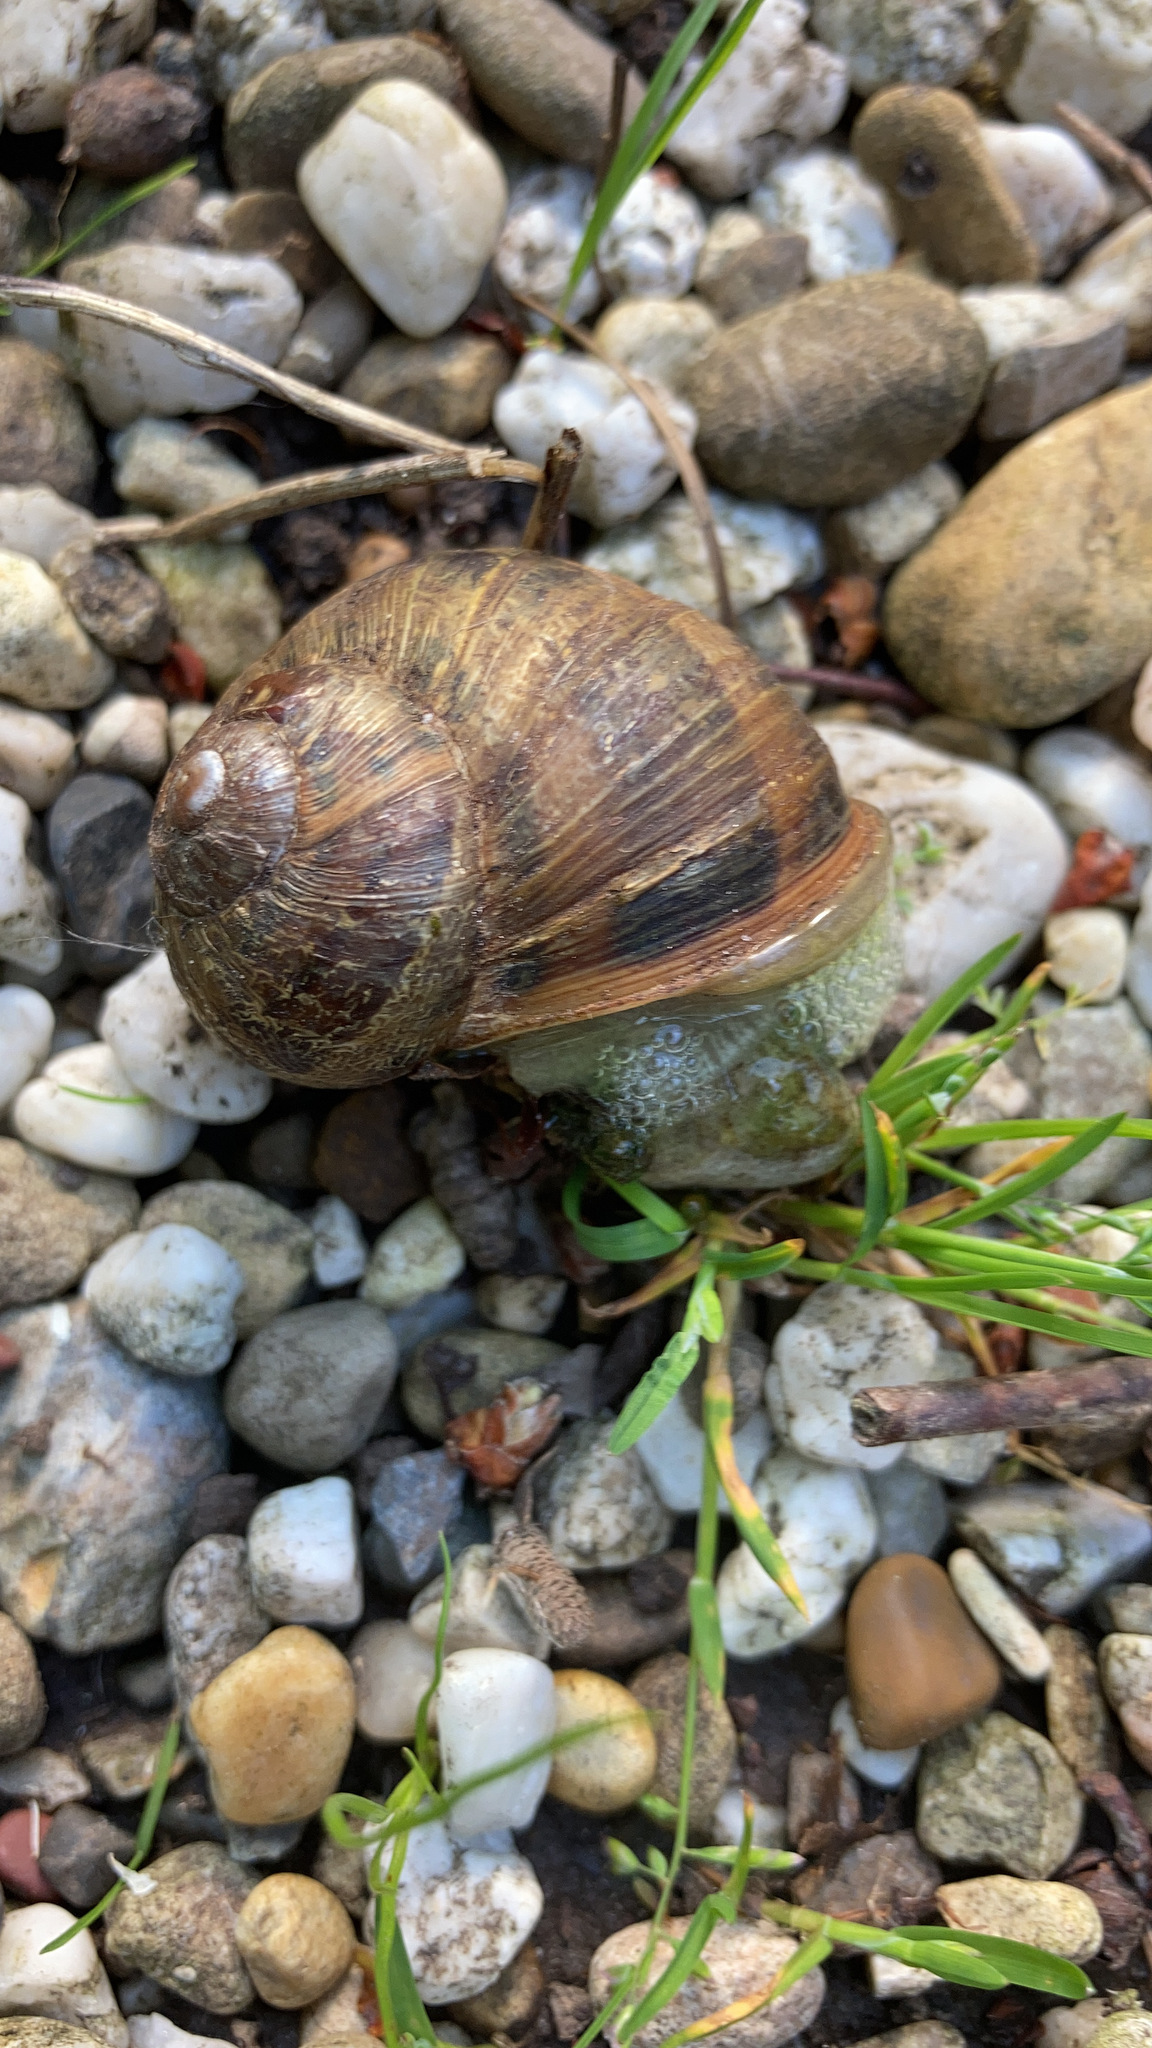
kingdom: Animalia
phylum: Mollusca
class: Gastropoda
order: Stylommatophora
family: Helicidae
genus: Cornu
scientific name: Cornu aspersum
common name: Brown garden snail
